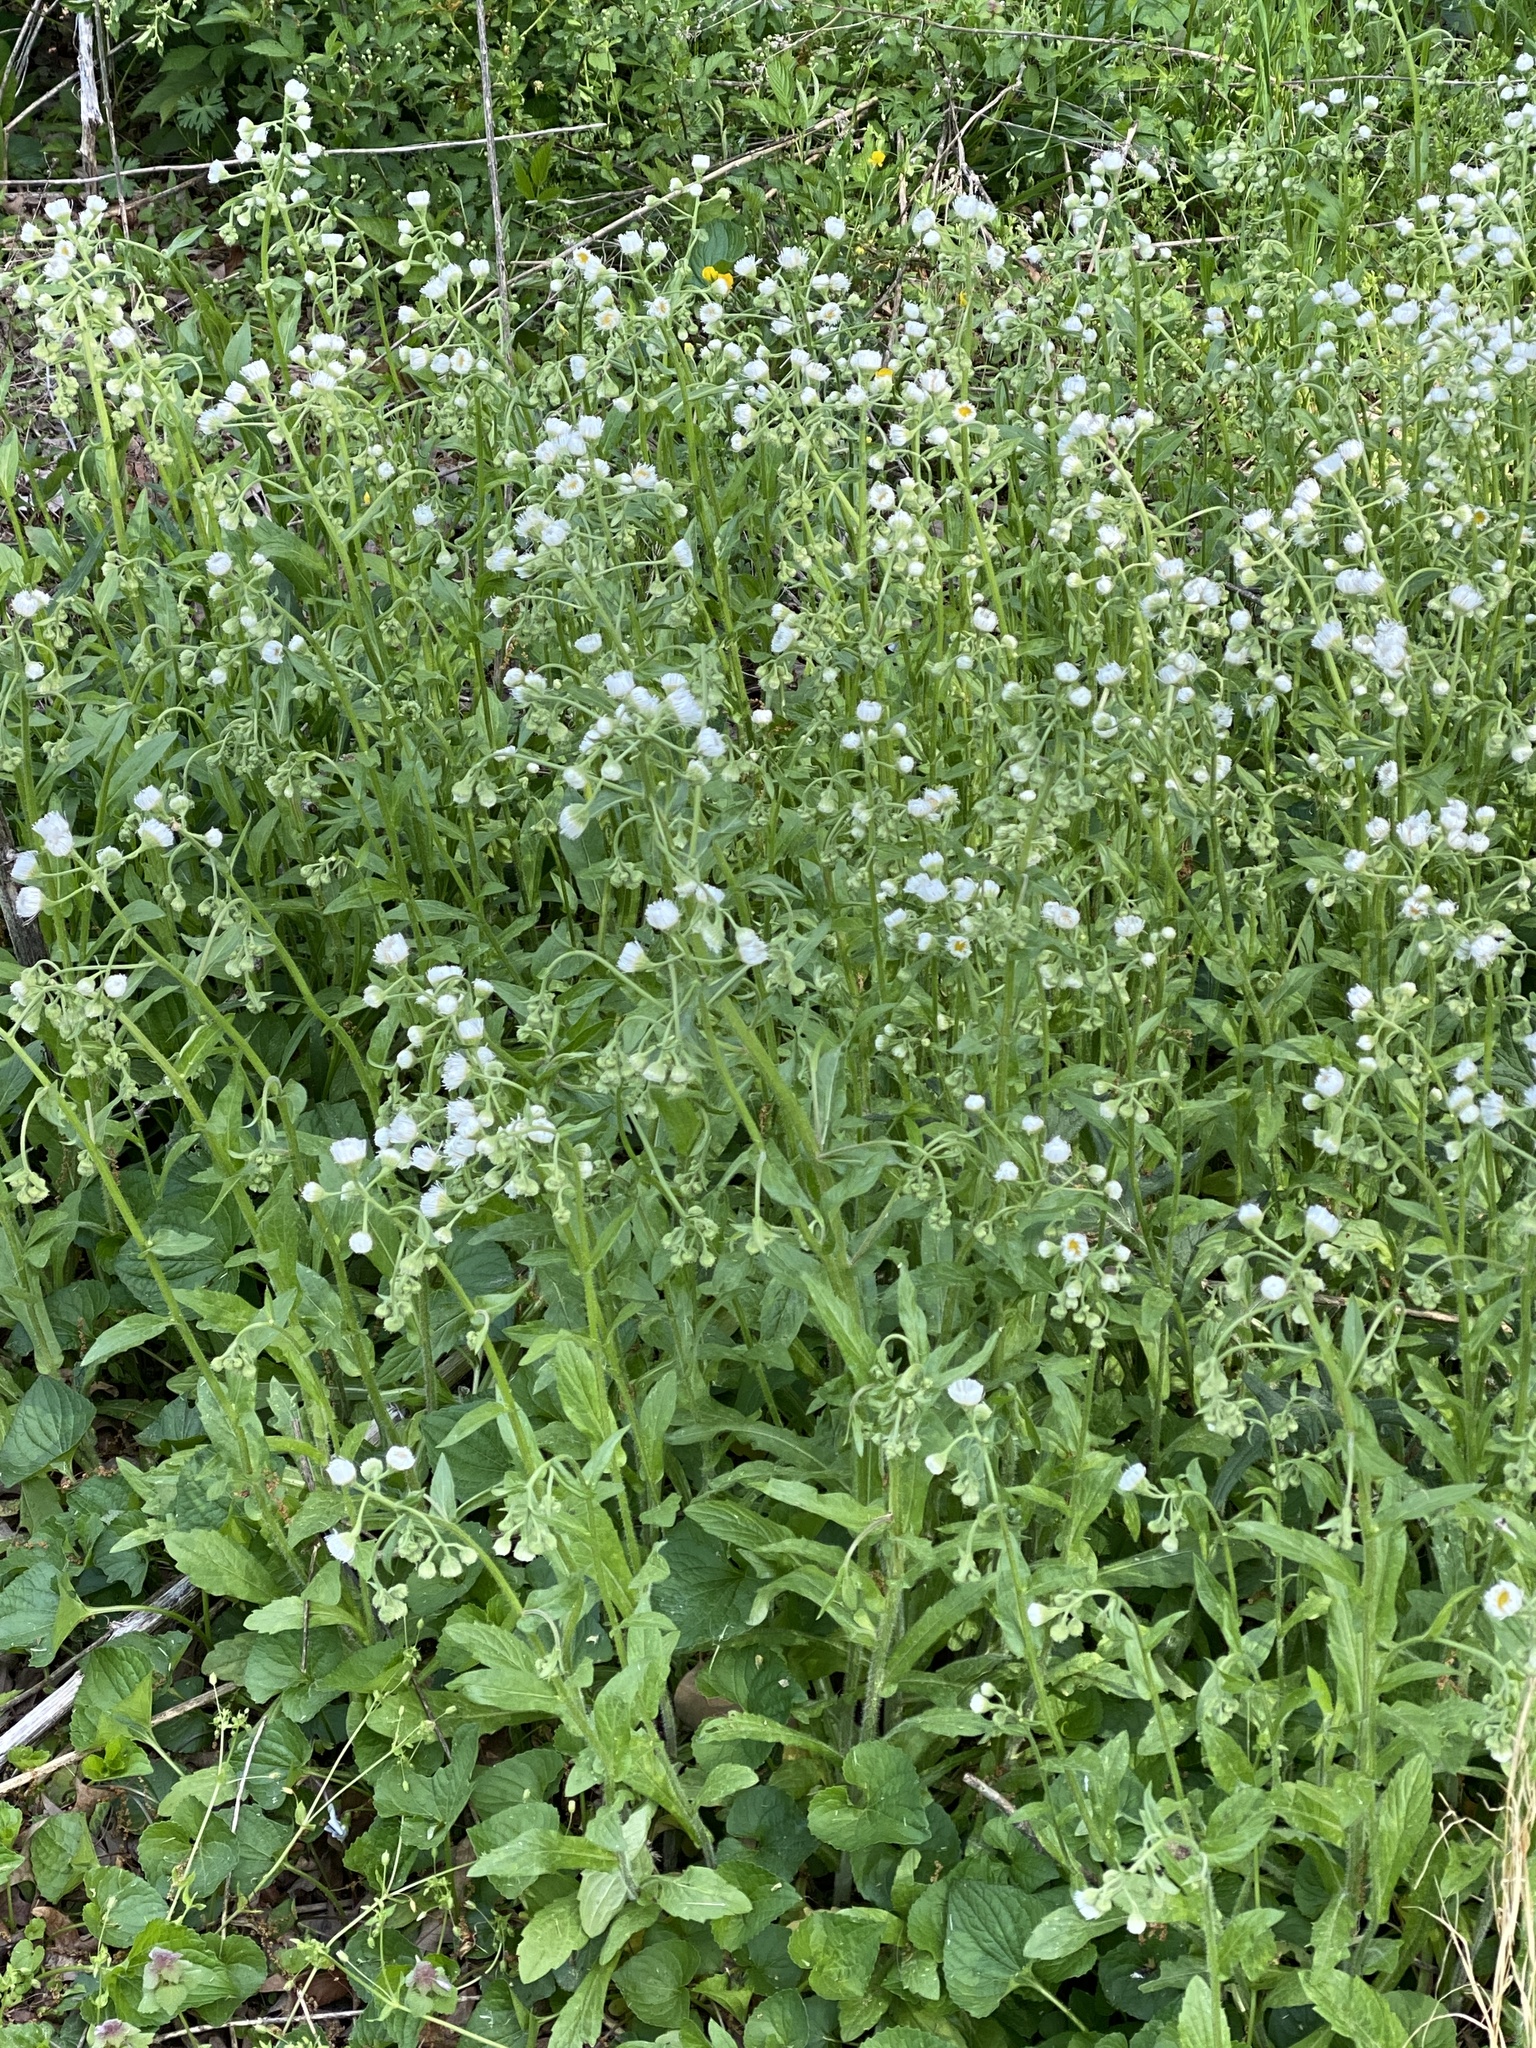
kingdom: Plantae
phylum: Tracheophyta
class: Magnoliopsida
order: Asterales
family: Asteraceae
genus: Erigeron
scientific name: Erigeron philadelphicus
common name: Robin's-plantain
